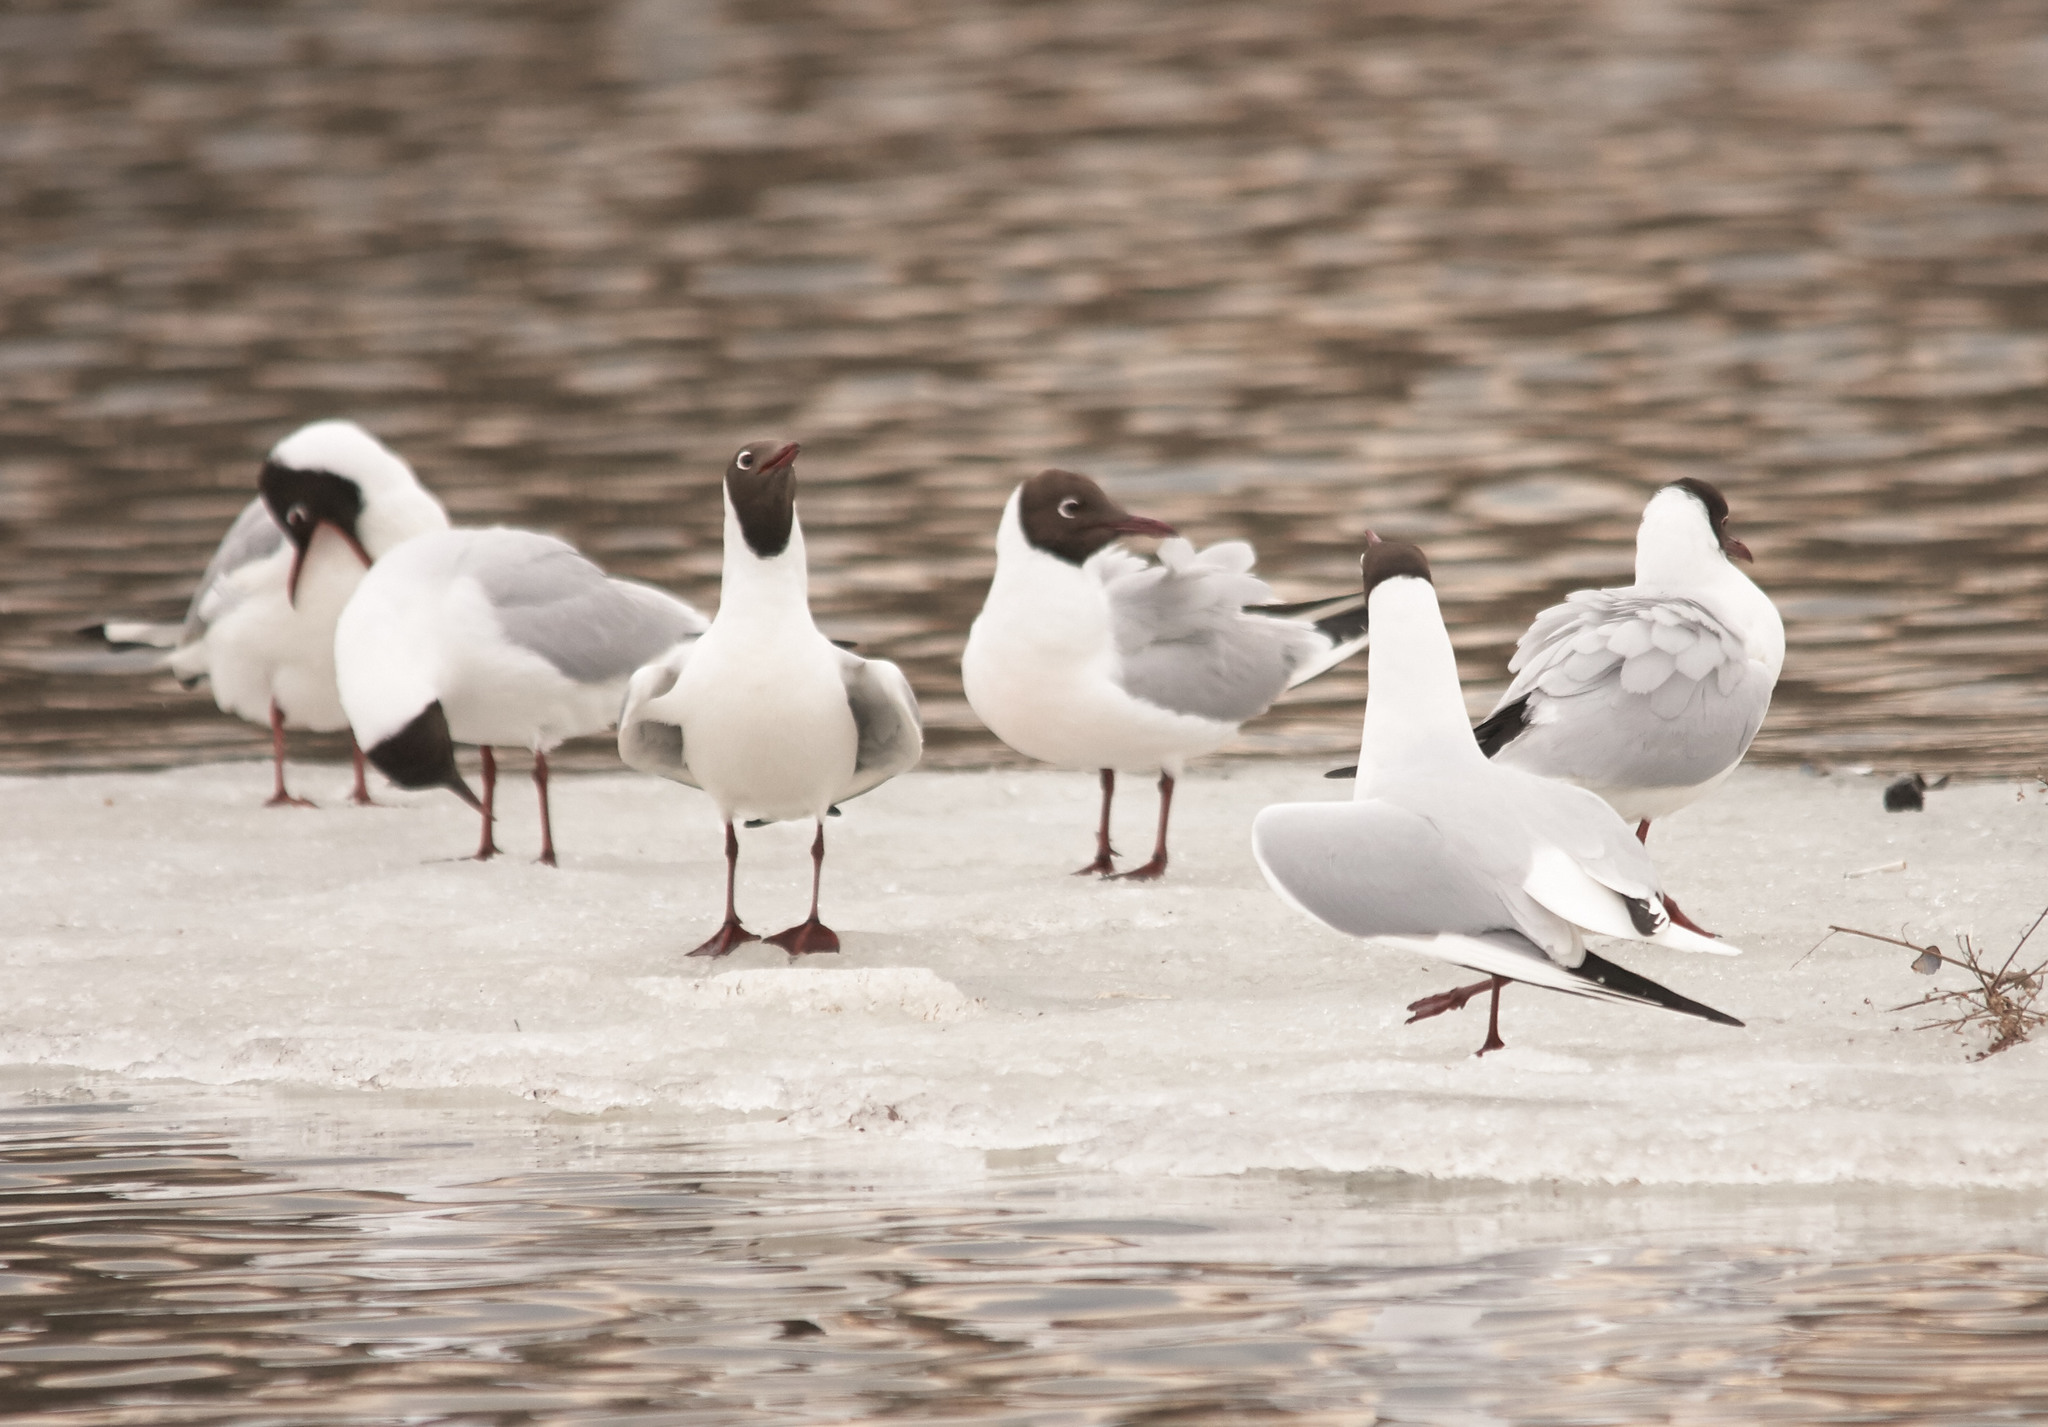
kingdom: Animalia
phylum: Chordata
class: Aves
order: Charadriiformes
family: Laridae
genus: Chroicocephalus
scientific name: Chroicocephalus ridibundus
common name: Black-headed gull
